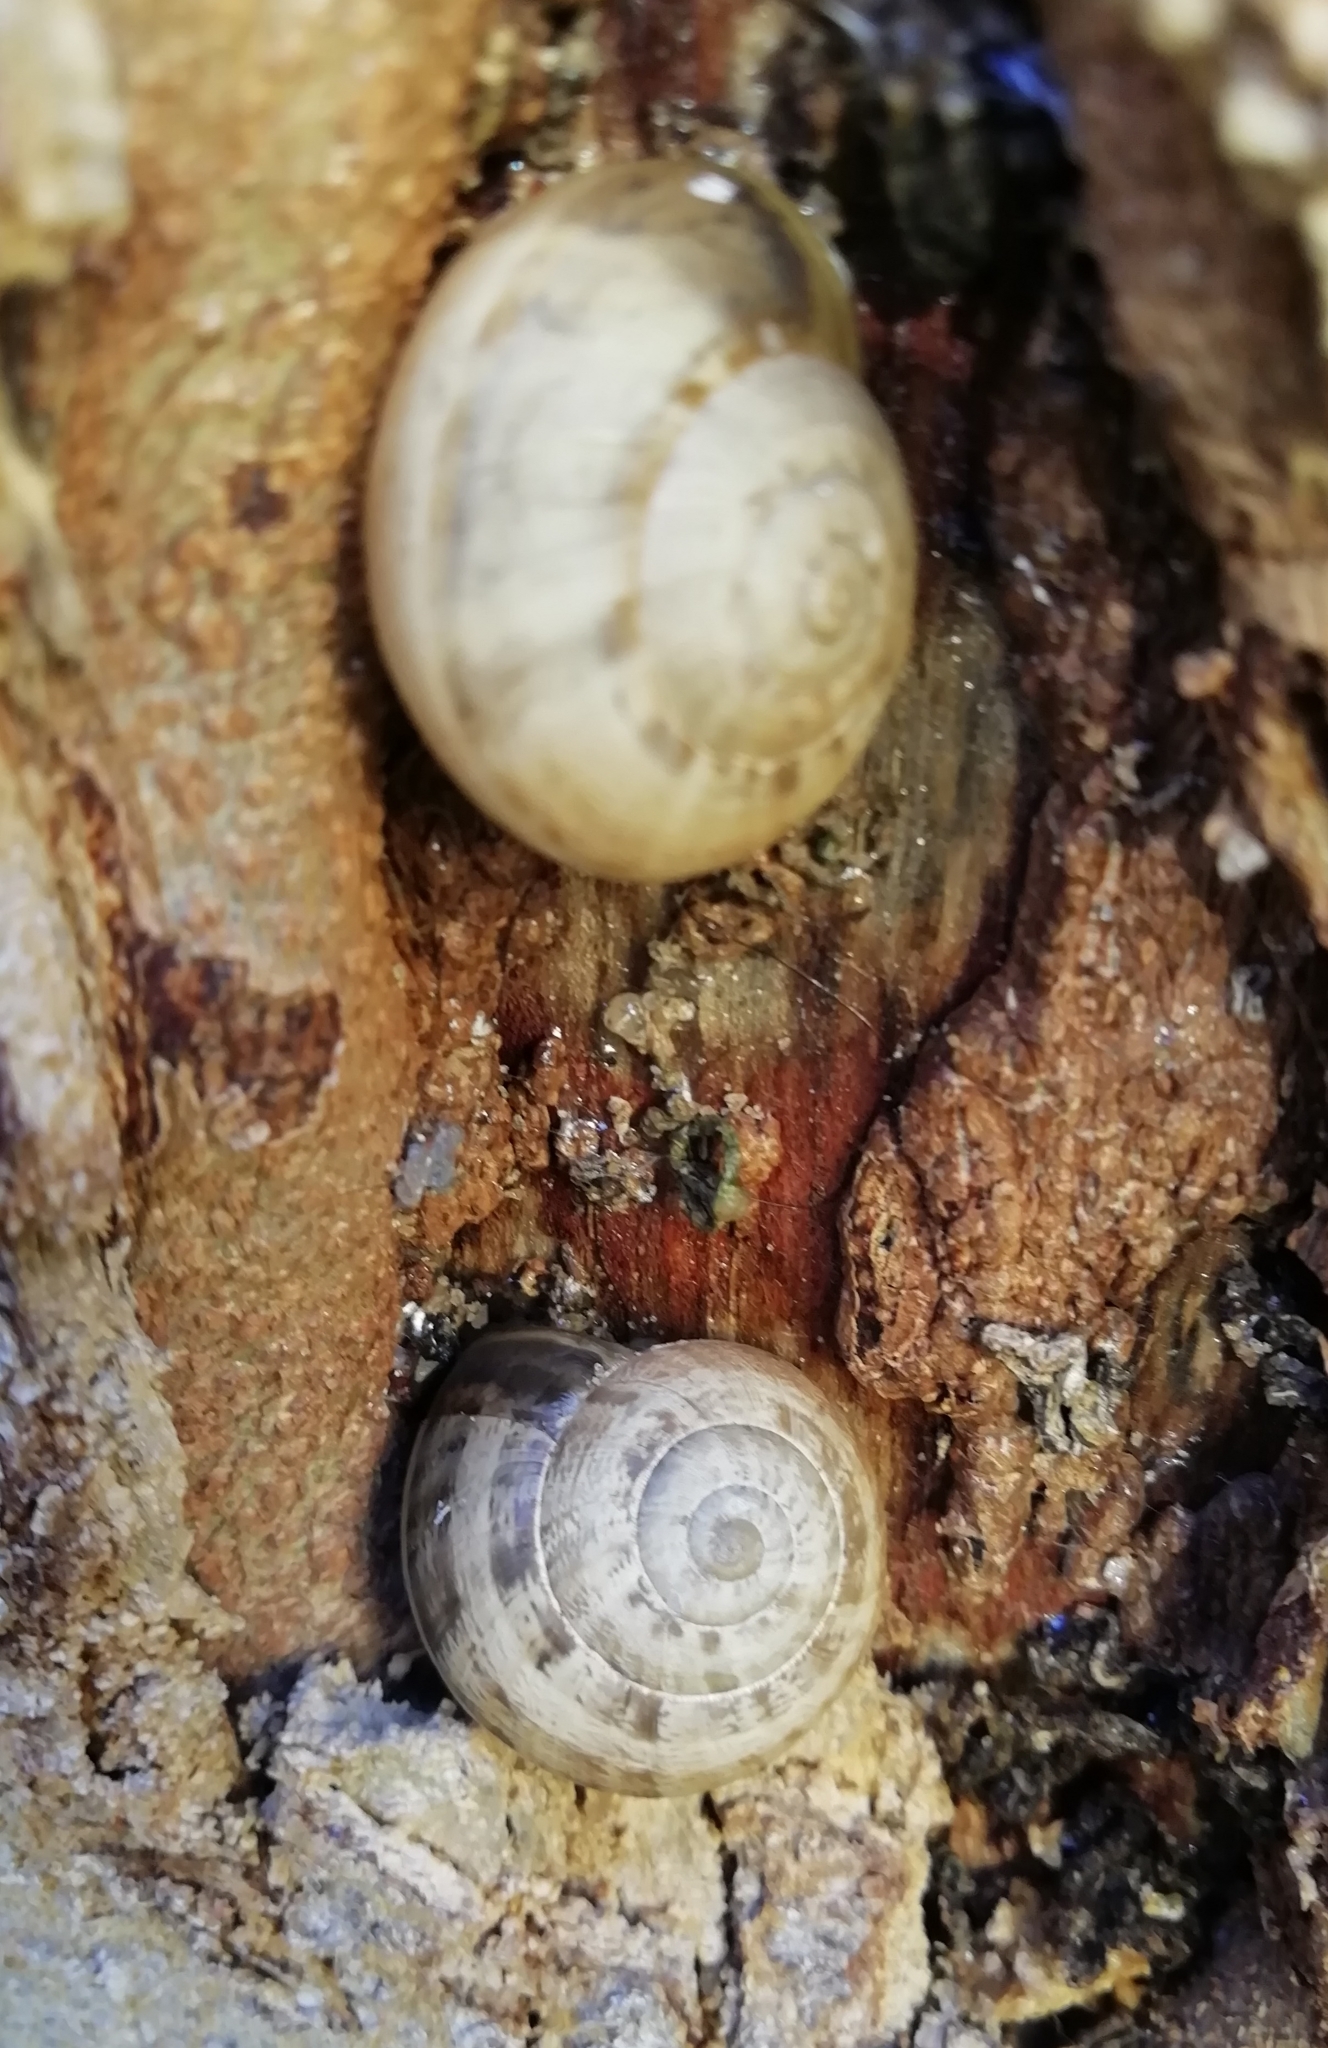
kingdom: Animalia
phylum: Mollusca
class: Gastropoda
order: Stylommatophora
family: Helicidae
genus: Eobania
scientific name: Eobania vermiculata
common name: Chocolateband snail
